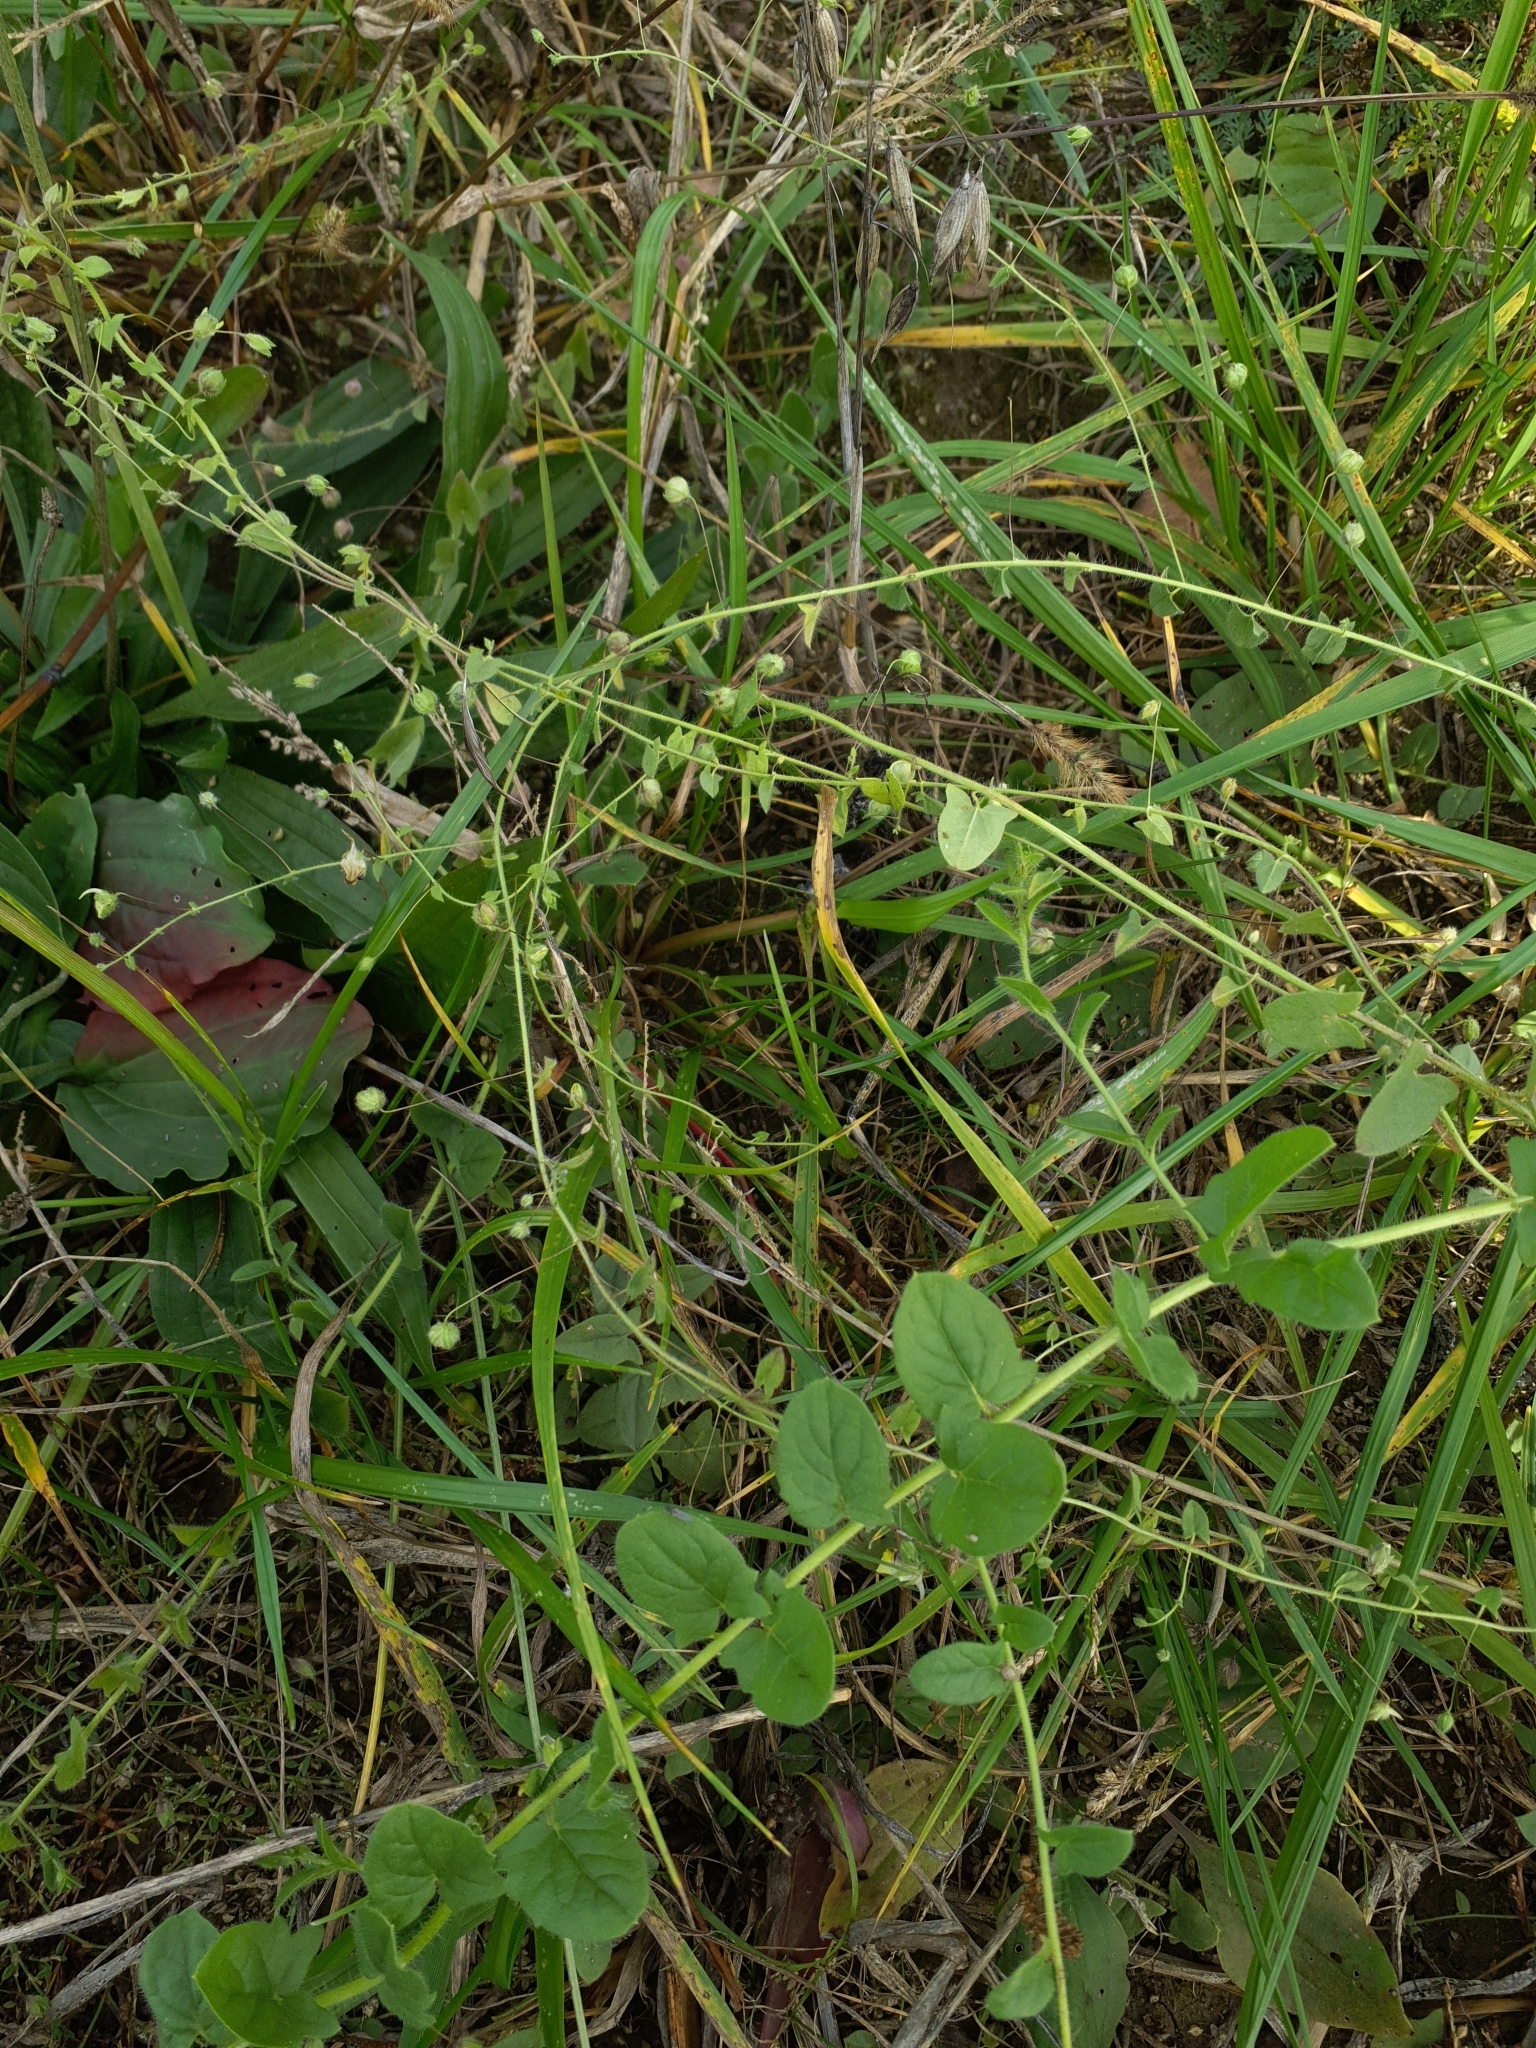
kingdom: Plantae
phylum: Tracheophyta
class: Magnoliopsida
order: Lamiales
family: Plantaginaceae
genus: Kickxia
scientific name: Kickxia elatine
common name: Sharp-leaved fluellen
